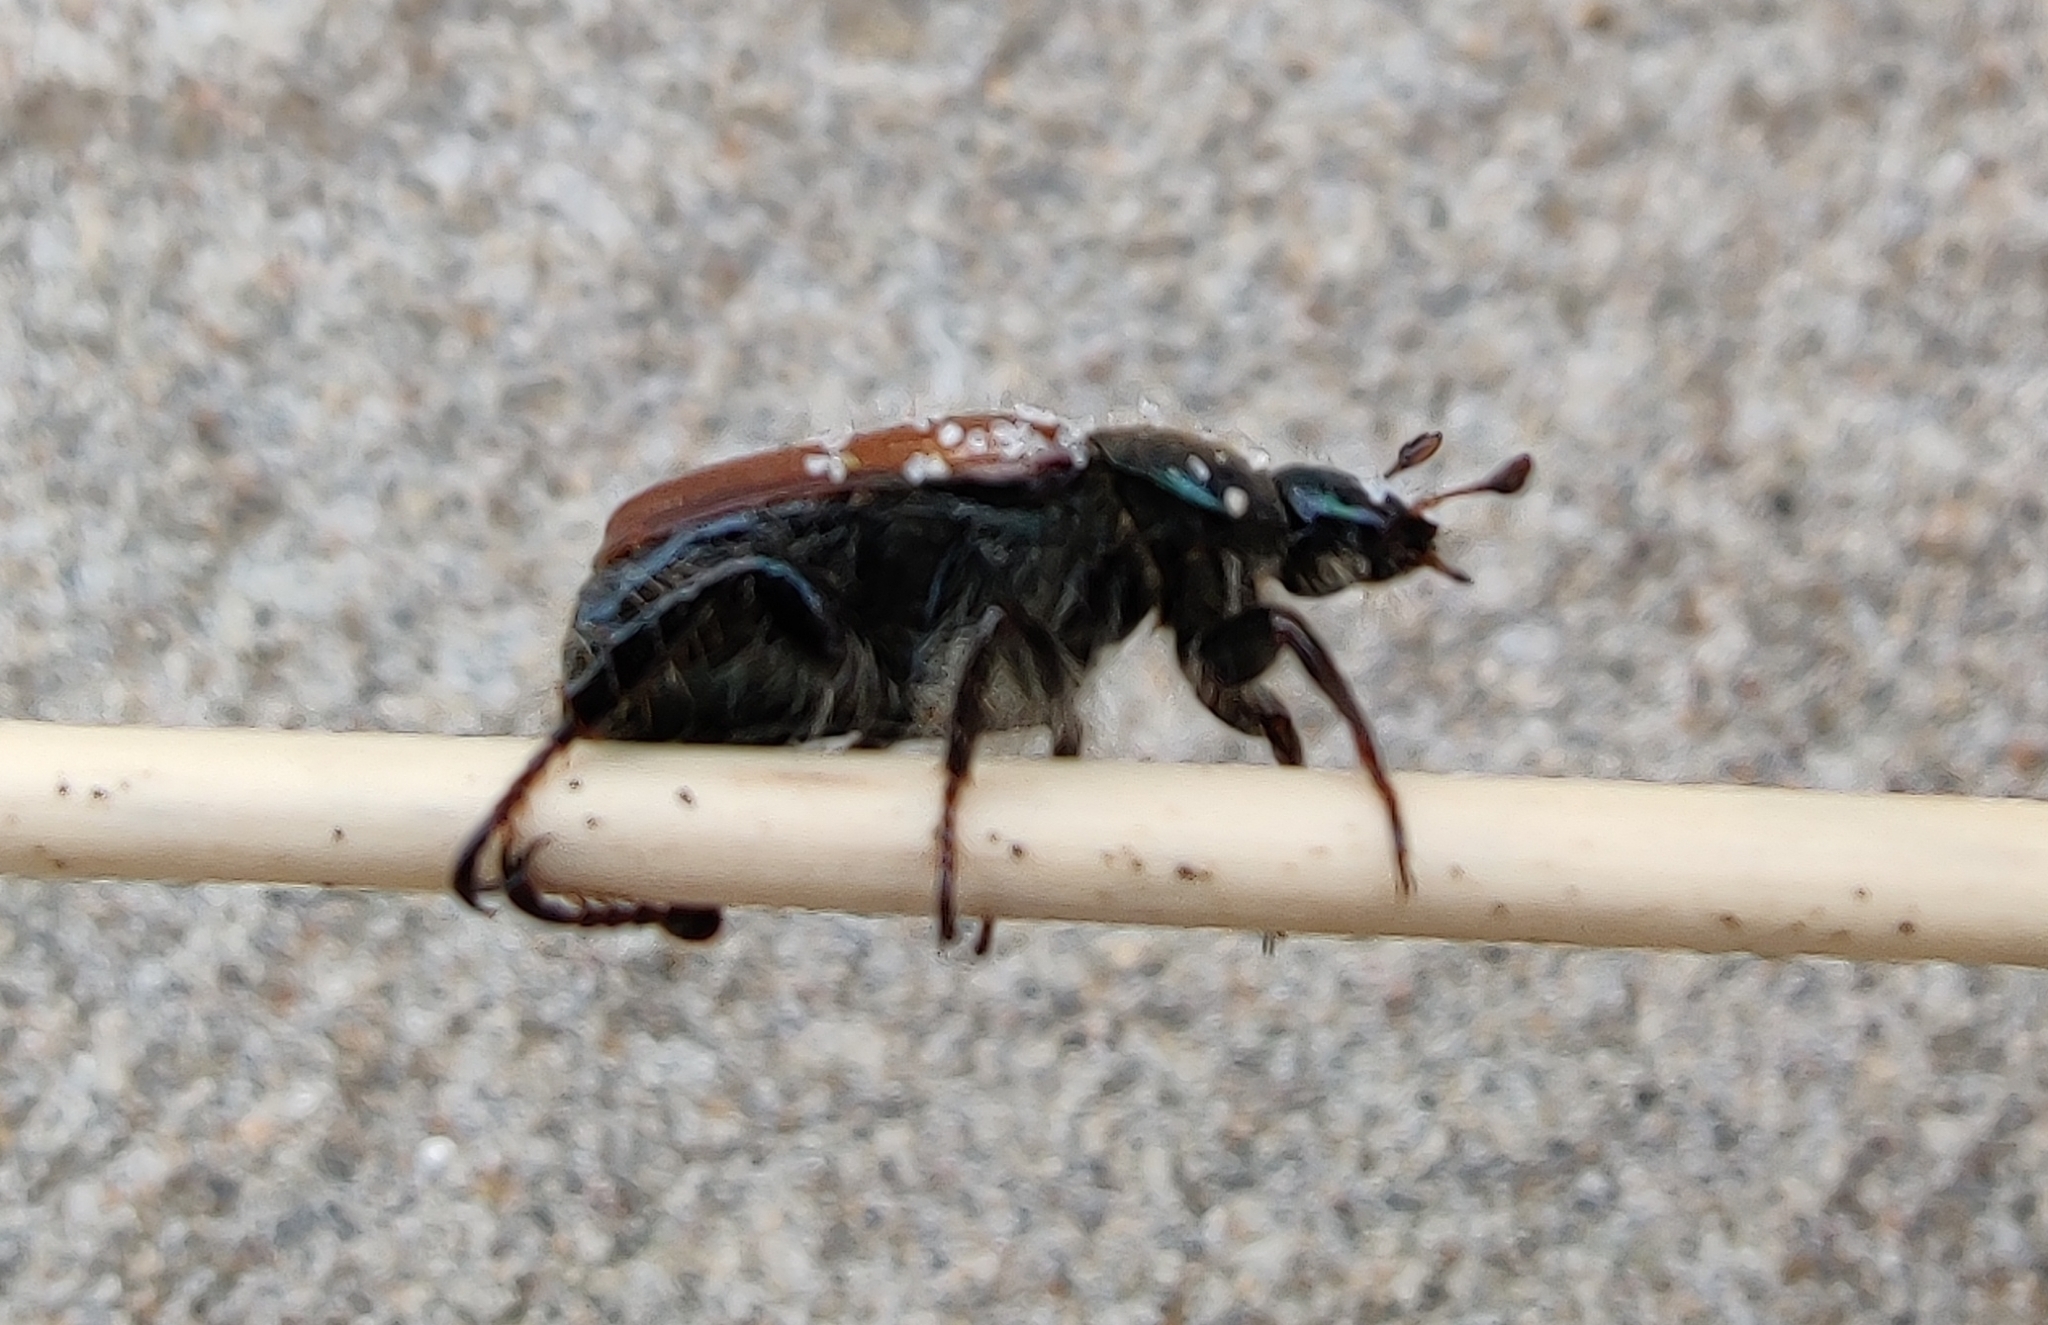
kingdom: Animalia
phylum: Arthropoda
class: Insecta
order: Coleoptera
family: Scarabaeidae
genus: Phyllopertha
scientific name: Phyllopertha horticola
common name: Garden chafer
